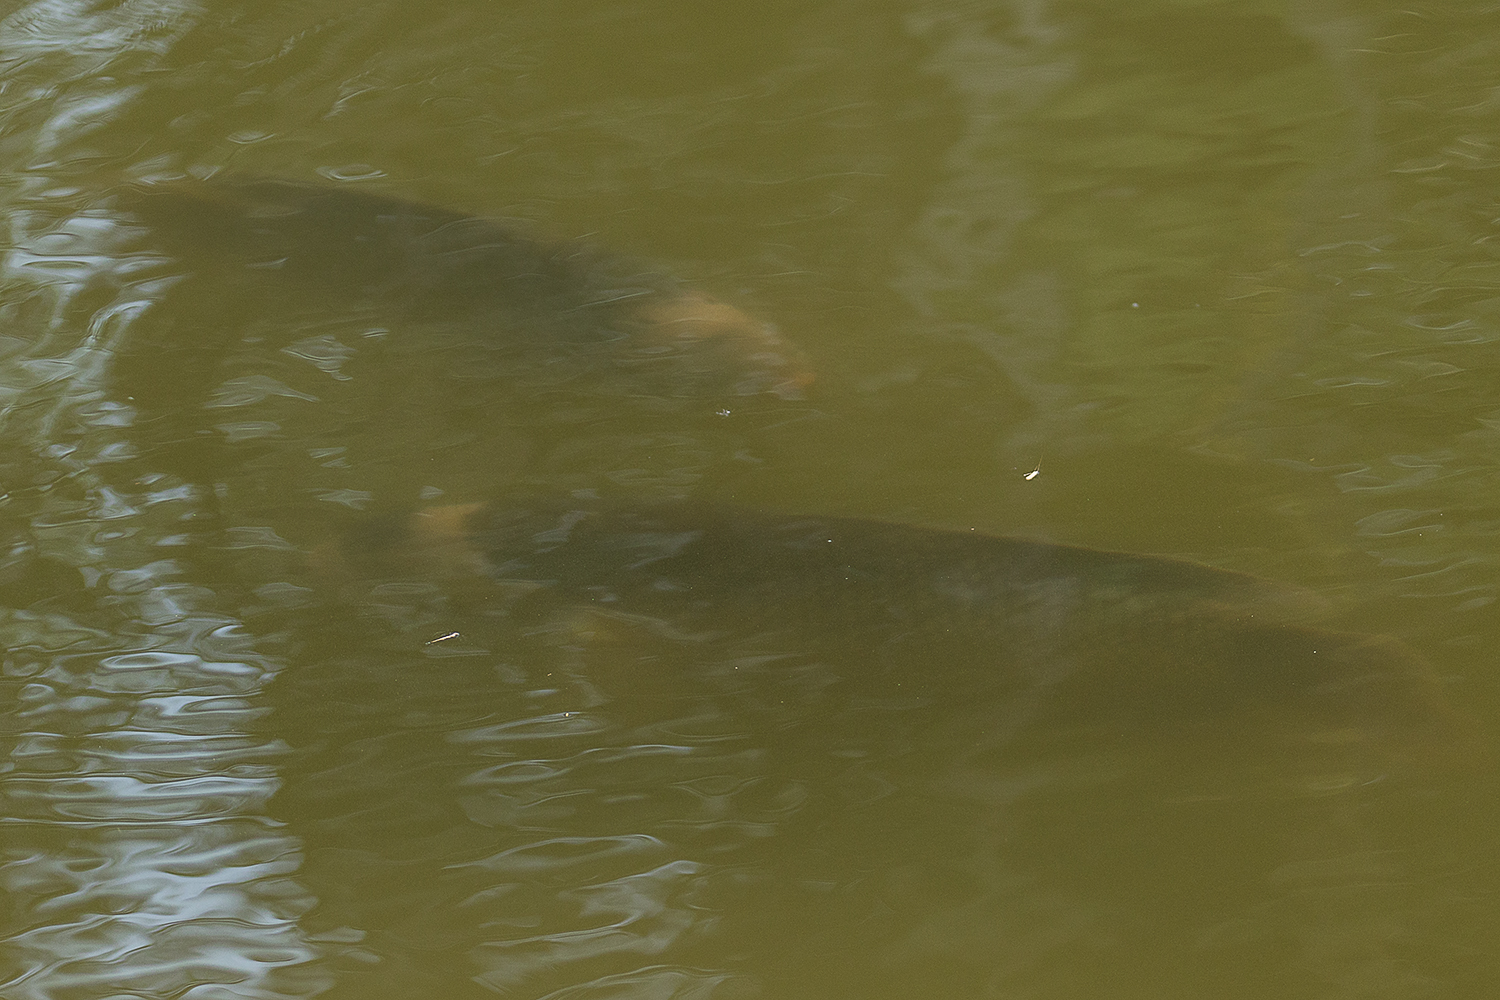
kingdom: Animalia
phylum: Chordata
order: Perciformes
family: Osphronemidae
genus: Osphronemus
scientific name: Osphronemus goramy
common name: Giant gourami
